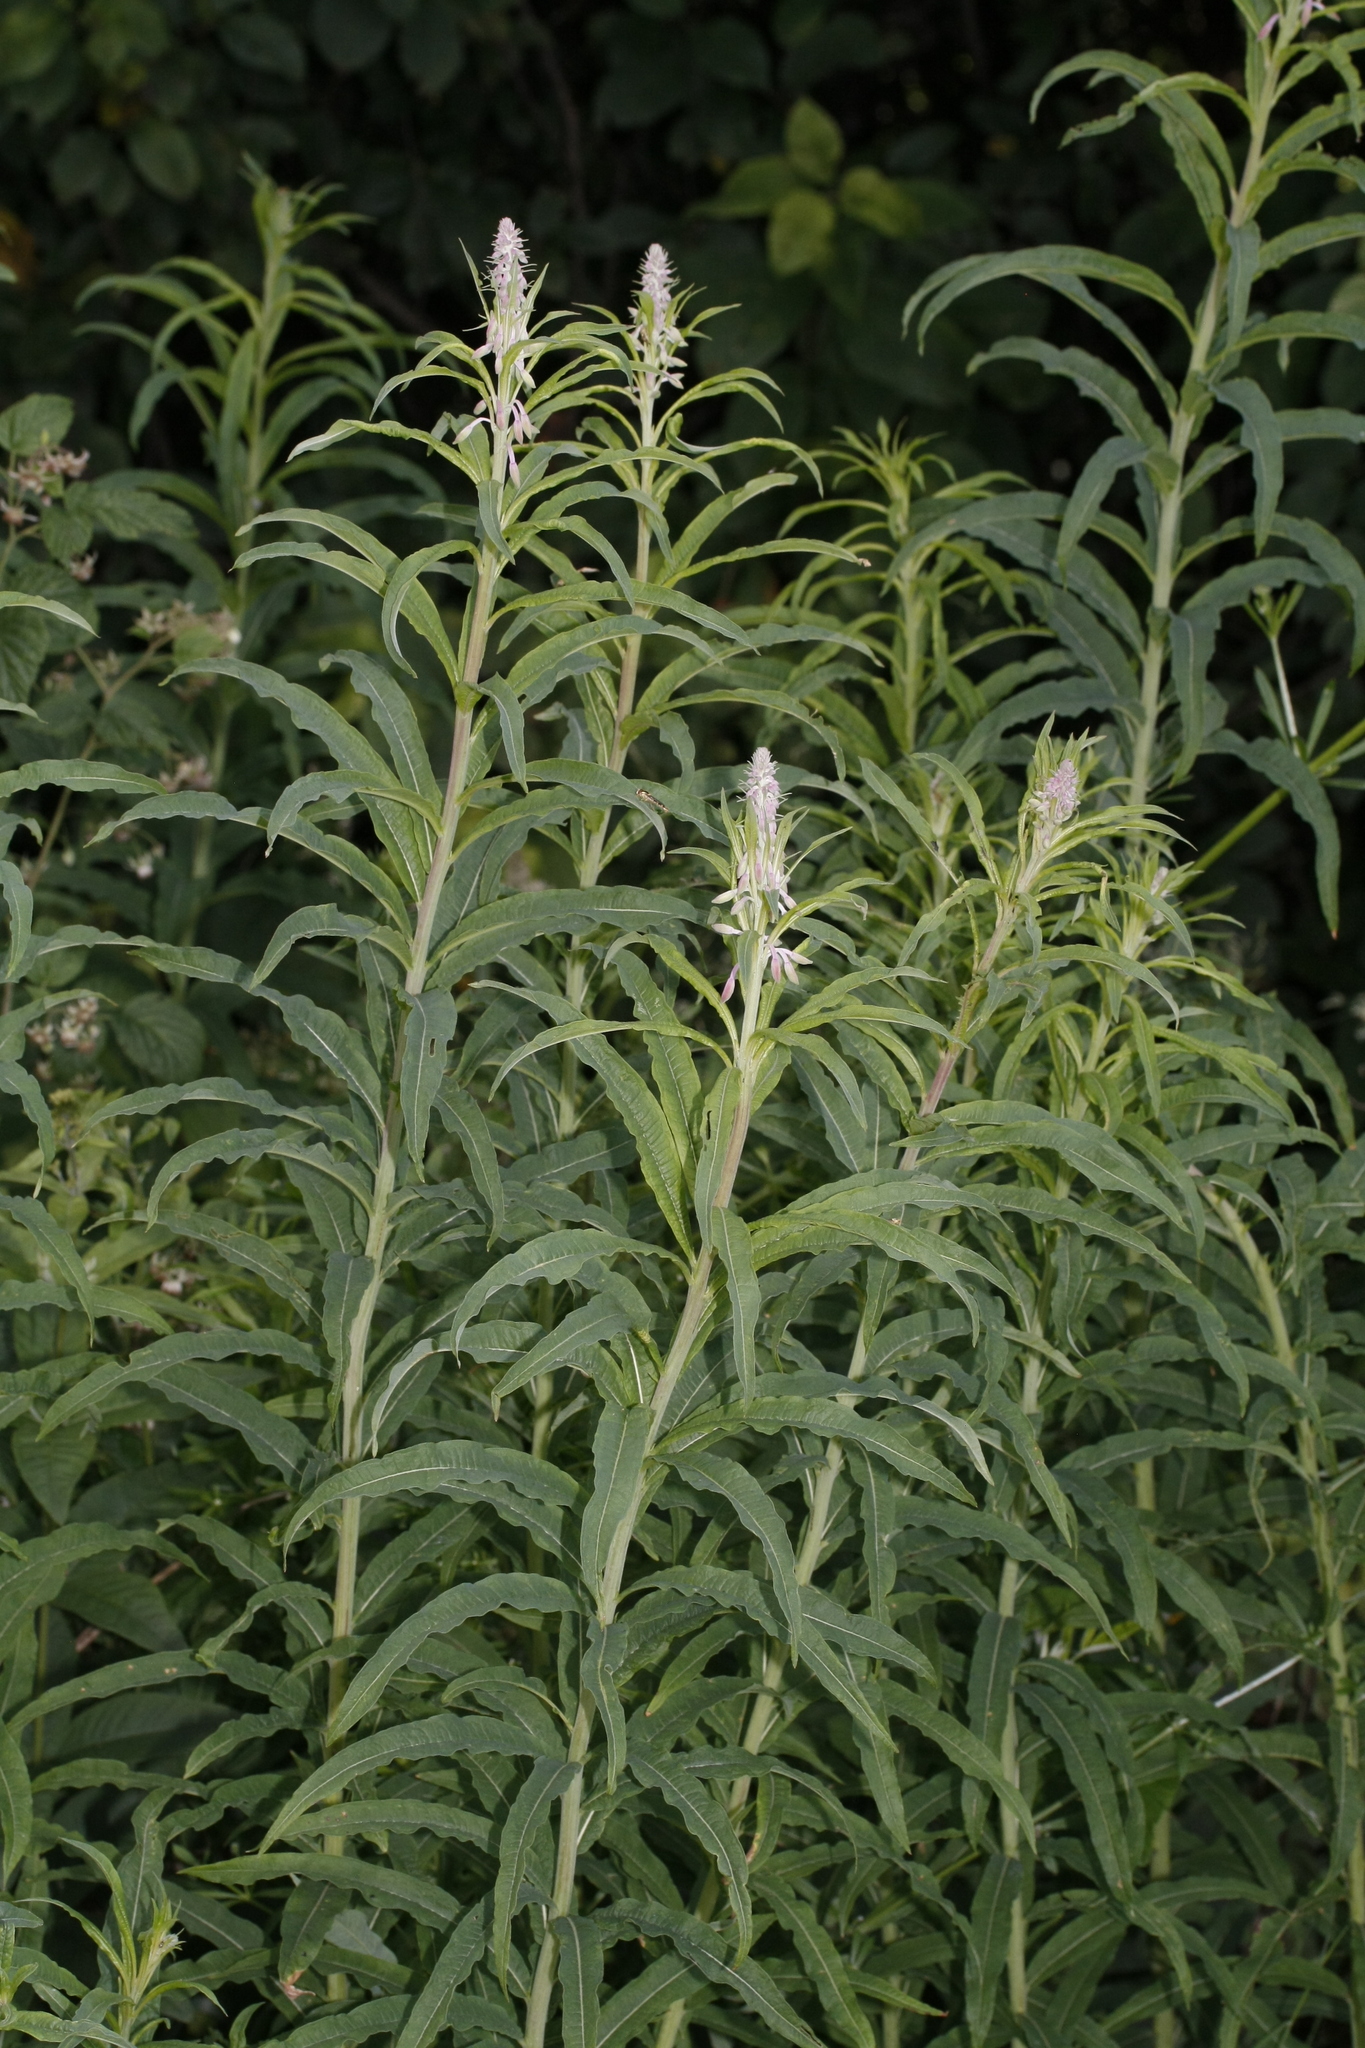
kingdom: Plantae
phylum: Tracheophyta
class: Magnoliopsida
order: Myrtales
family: Onagraceae
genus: Chamaenerion
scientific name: Chamaenerion angustifolium
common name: Fireweed
